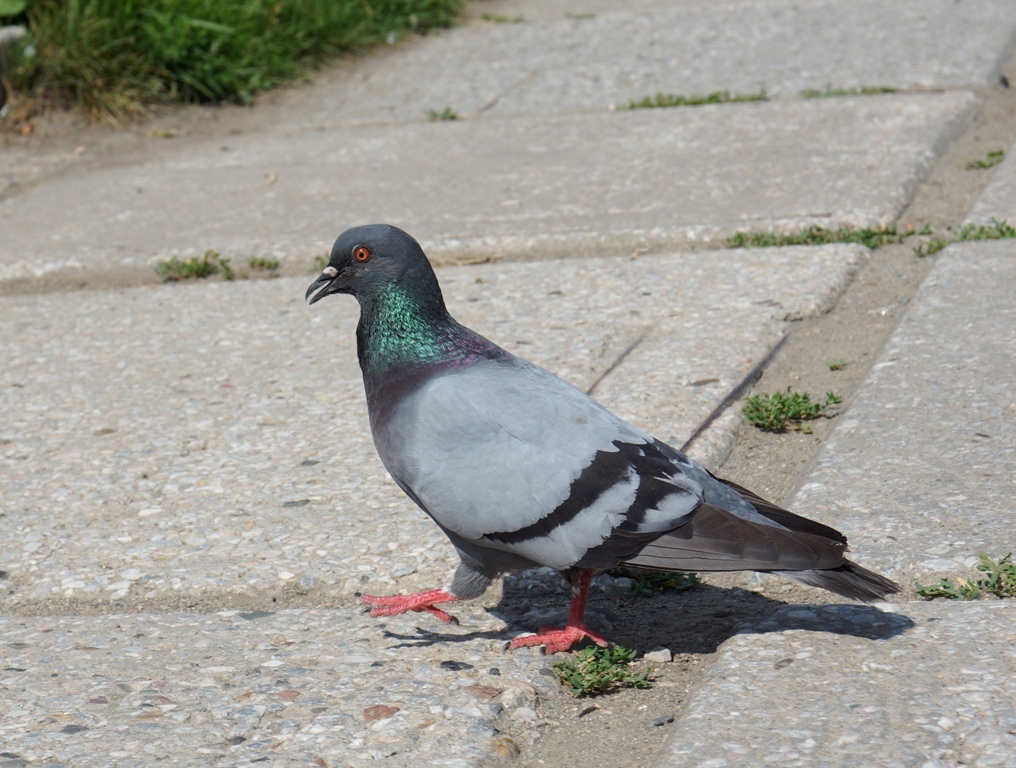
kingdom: Animalia
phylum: Chordata
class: Aves
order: Columbiformes
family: Columbidae
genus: Columba
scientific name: Columba livia
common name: Rock pigeon
